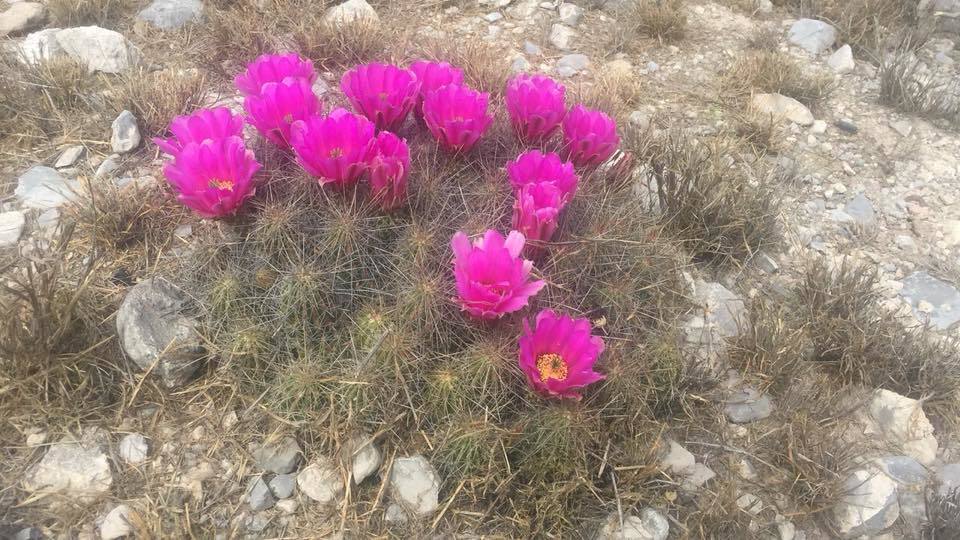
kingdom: Plantae
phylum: Tracheophyta
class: Magnoliopsida
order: Caryophyllales
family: Cactaceae
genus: Echinocereus
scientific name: Echinocereus stramineus
